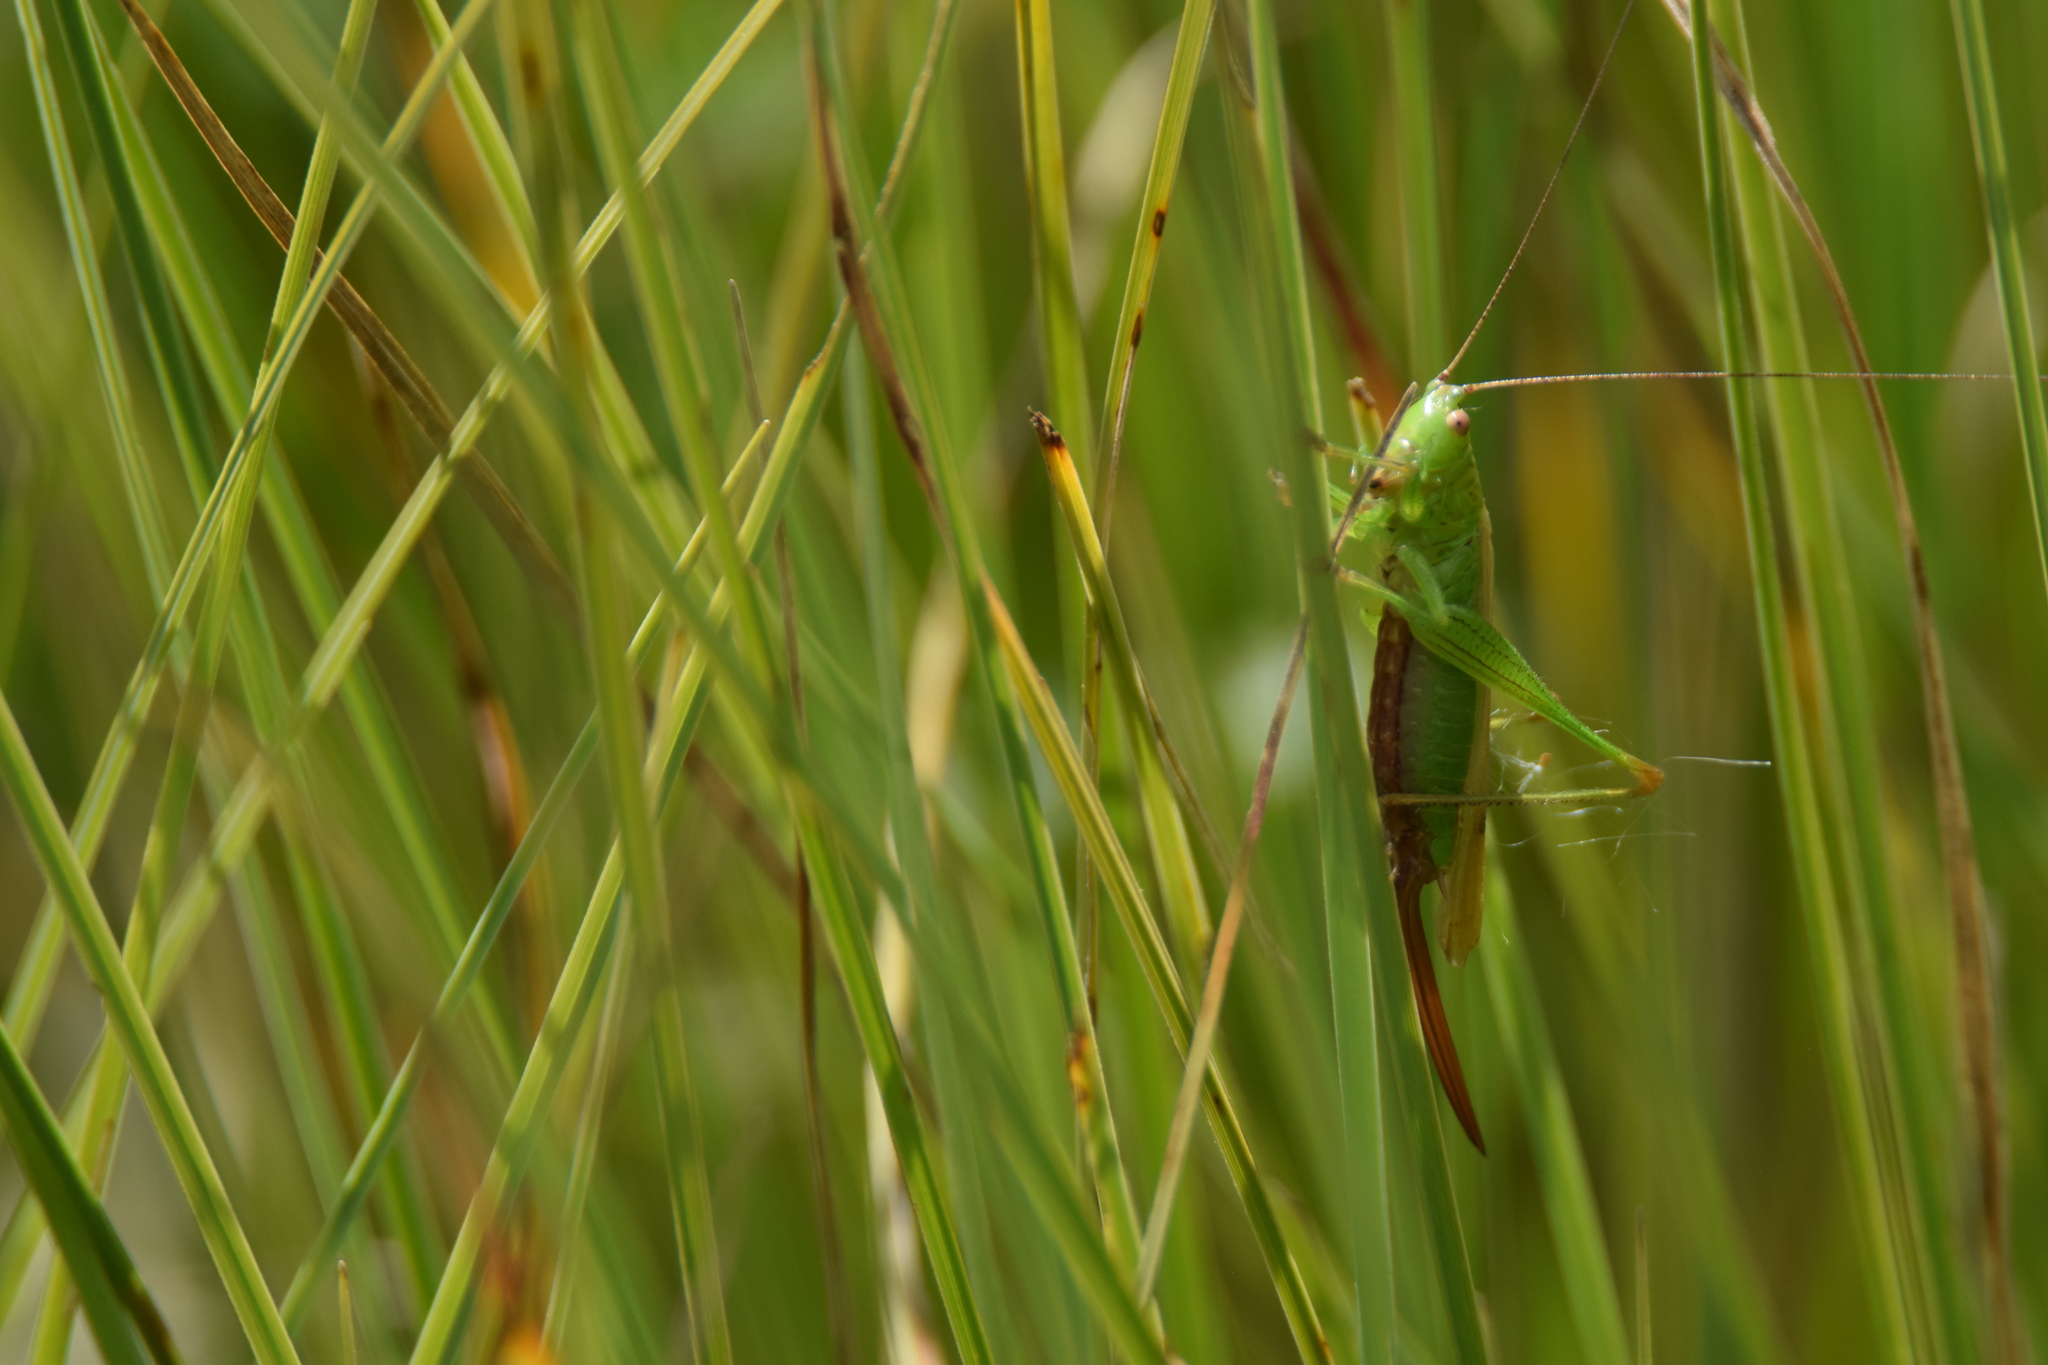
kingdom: Animalia
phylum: Arthropoda
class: Insecta
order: Orthoptera
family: Tettigoniidae
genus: Conocephalus
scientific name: Conocephalus fuscus
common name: Long-winged conehead
